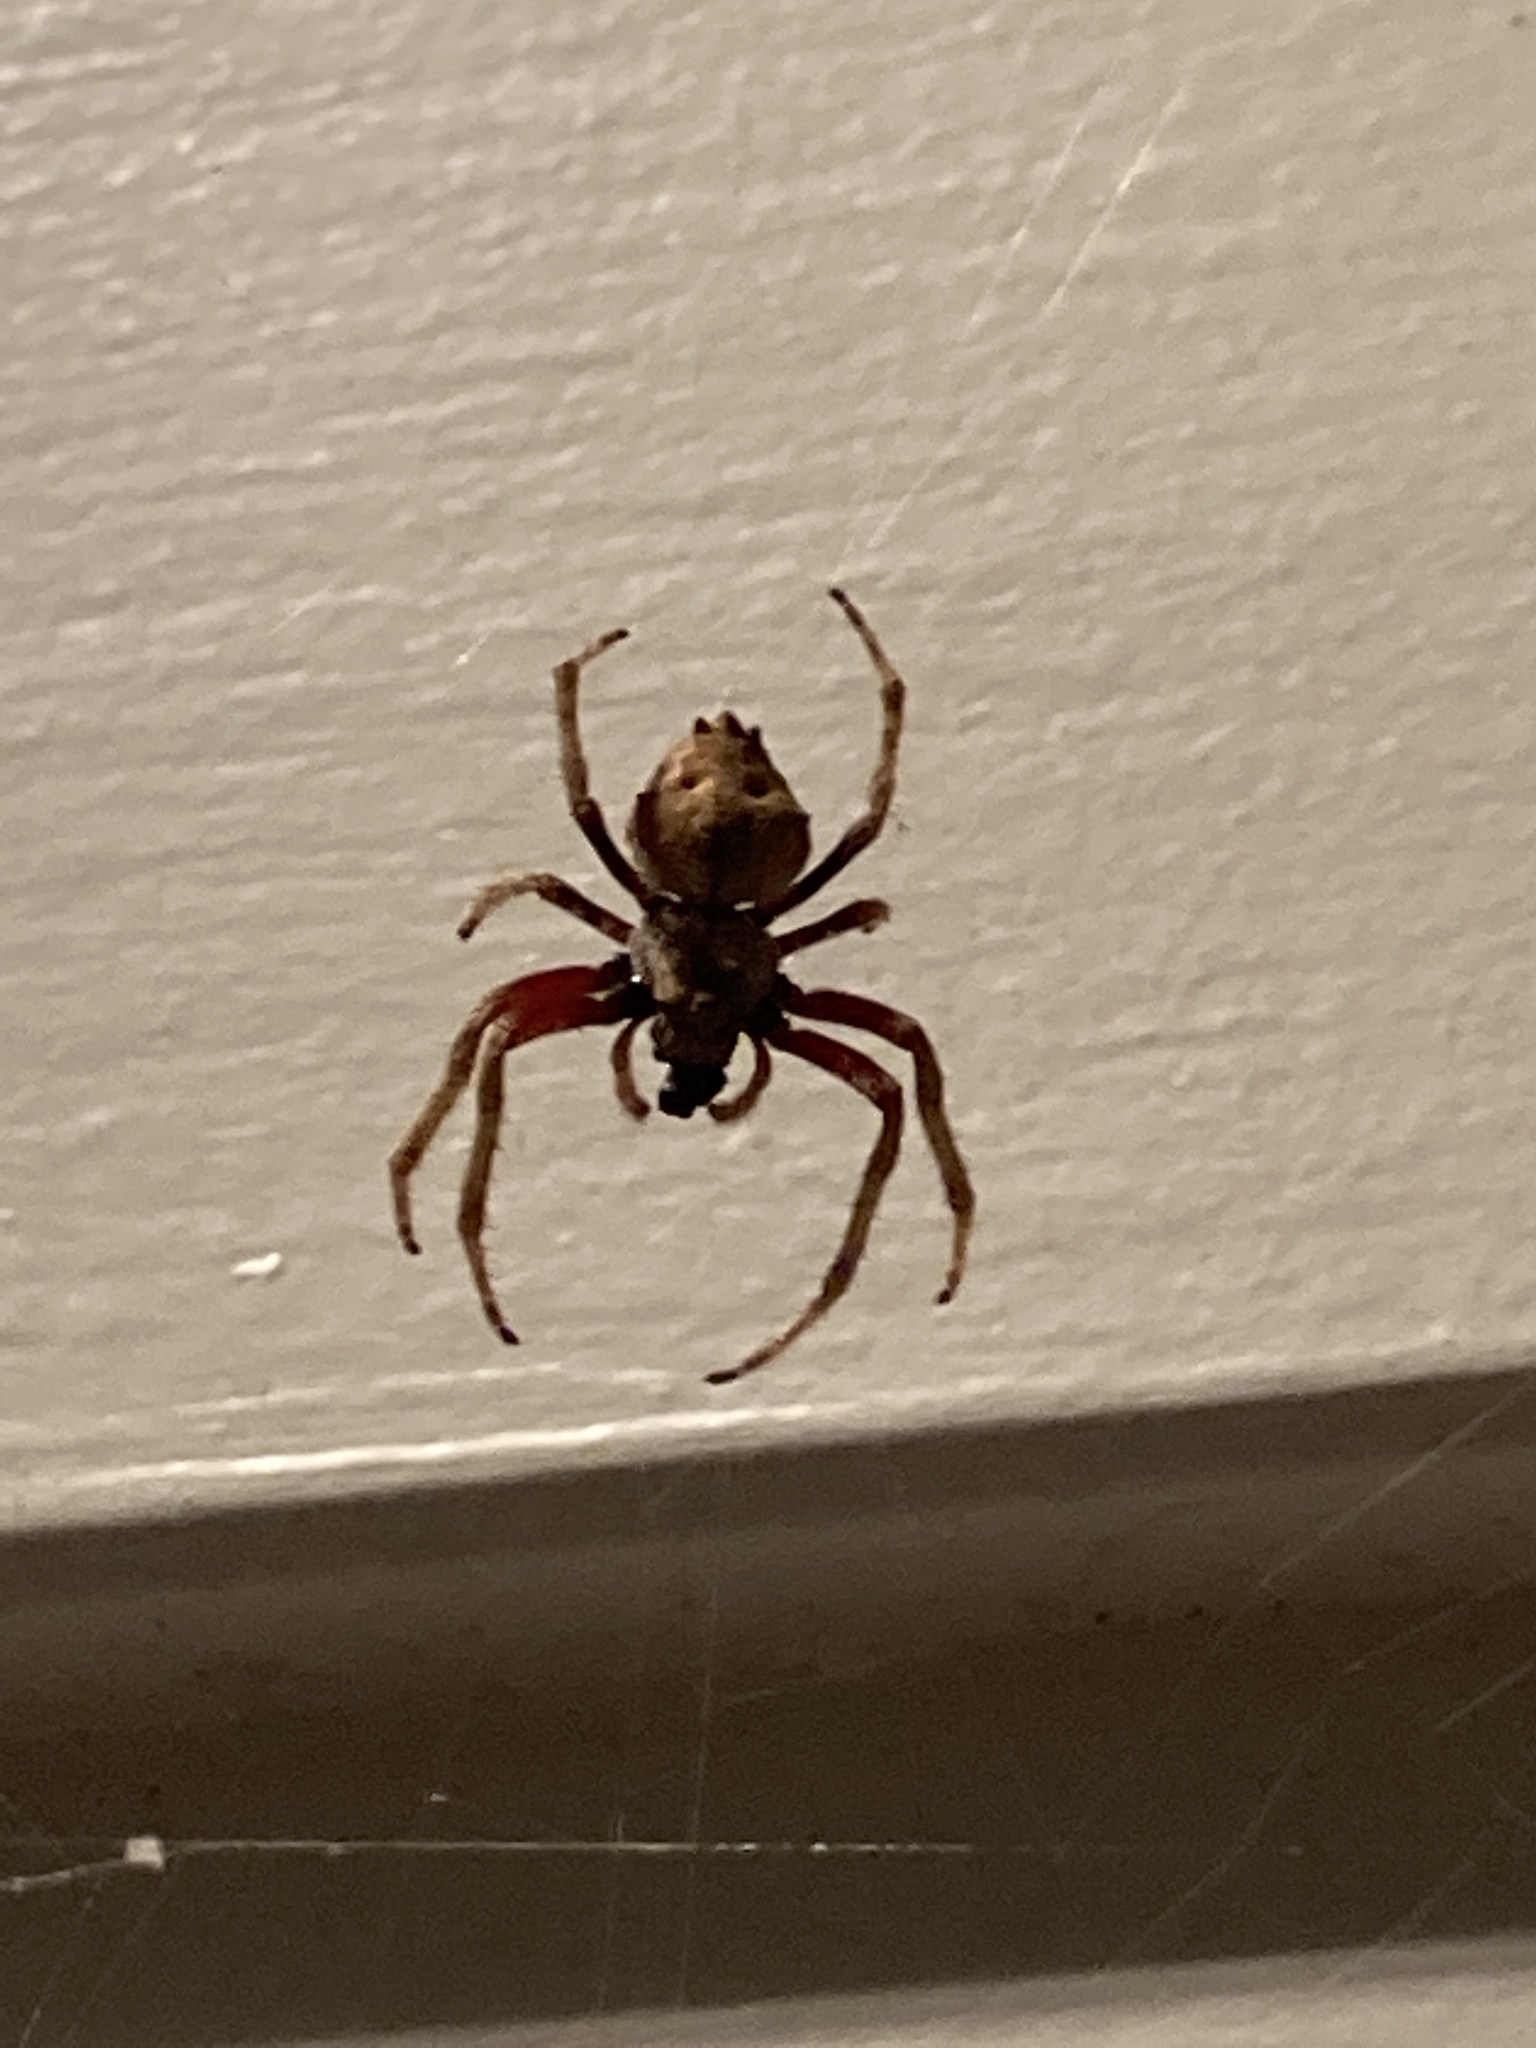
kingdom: Animalia
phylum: Arthropoda
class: Arachnida
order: Araneae
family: Araneidae
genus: Eriophora
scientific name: Eriophora pustulosa
